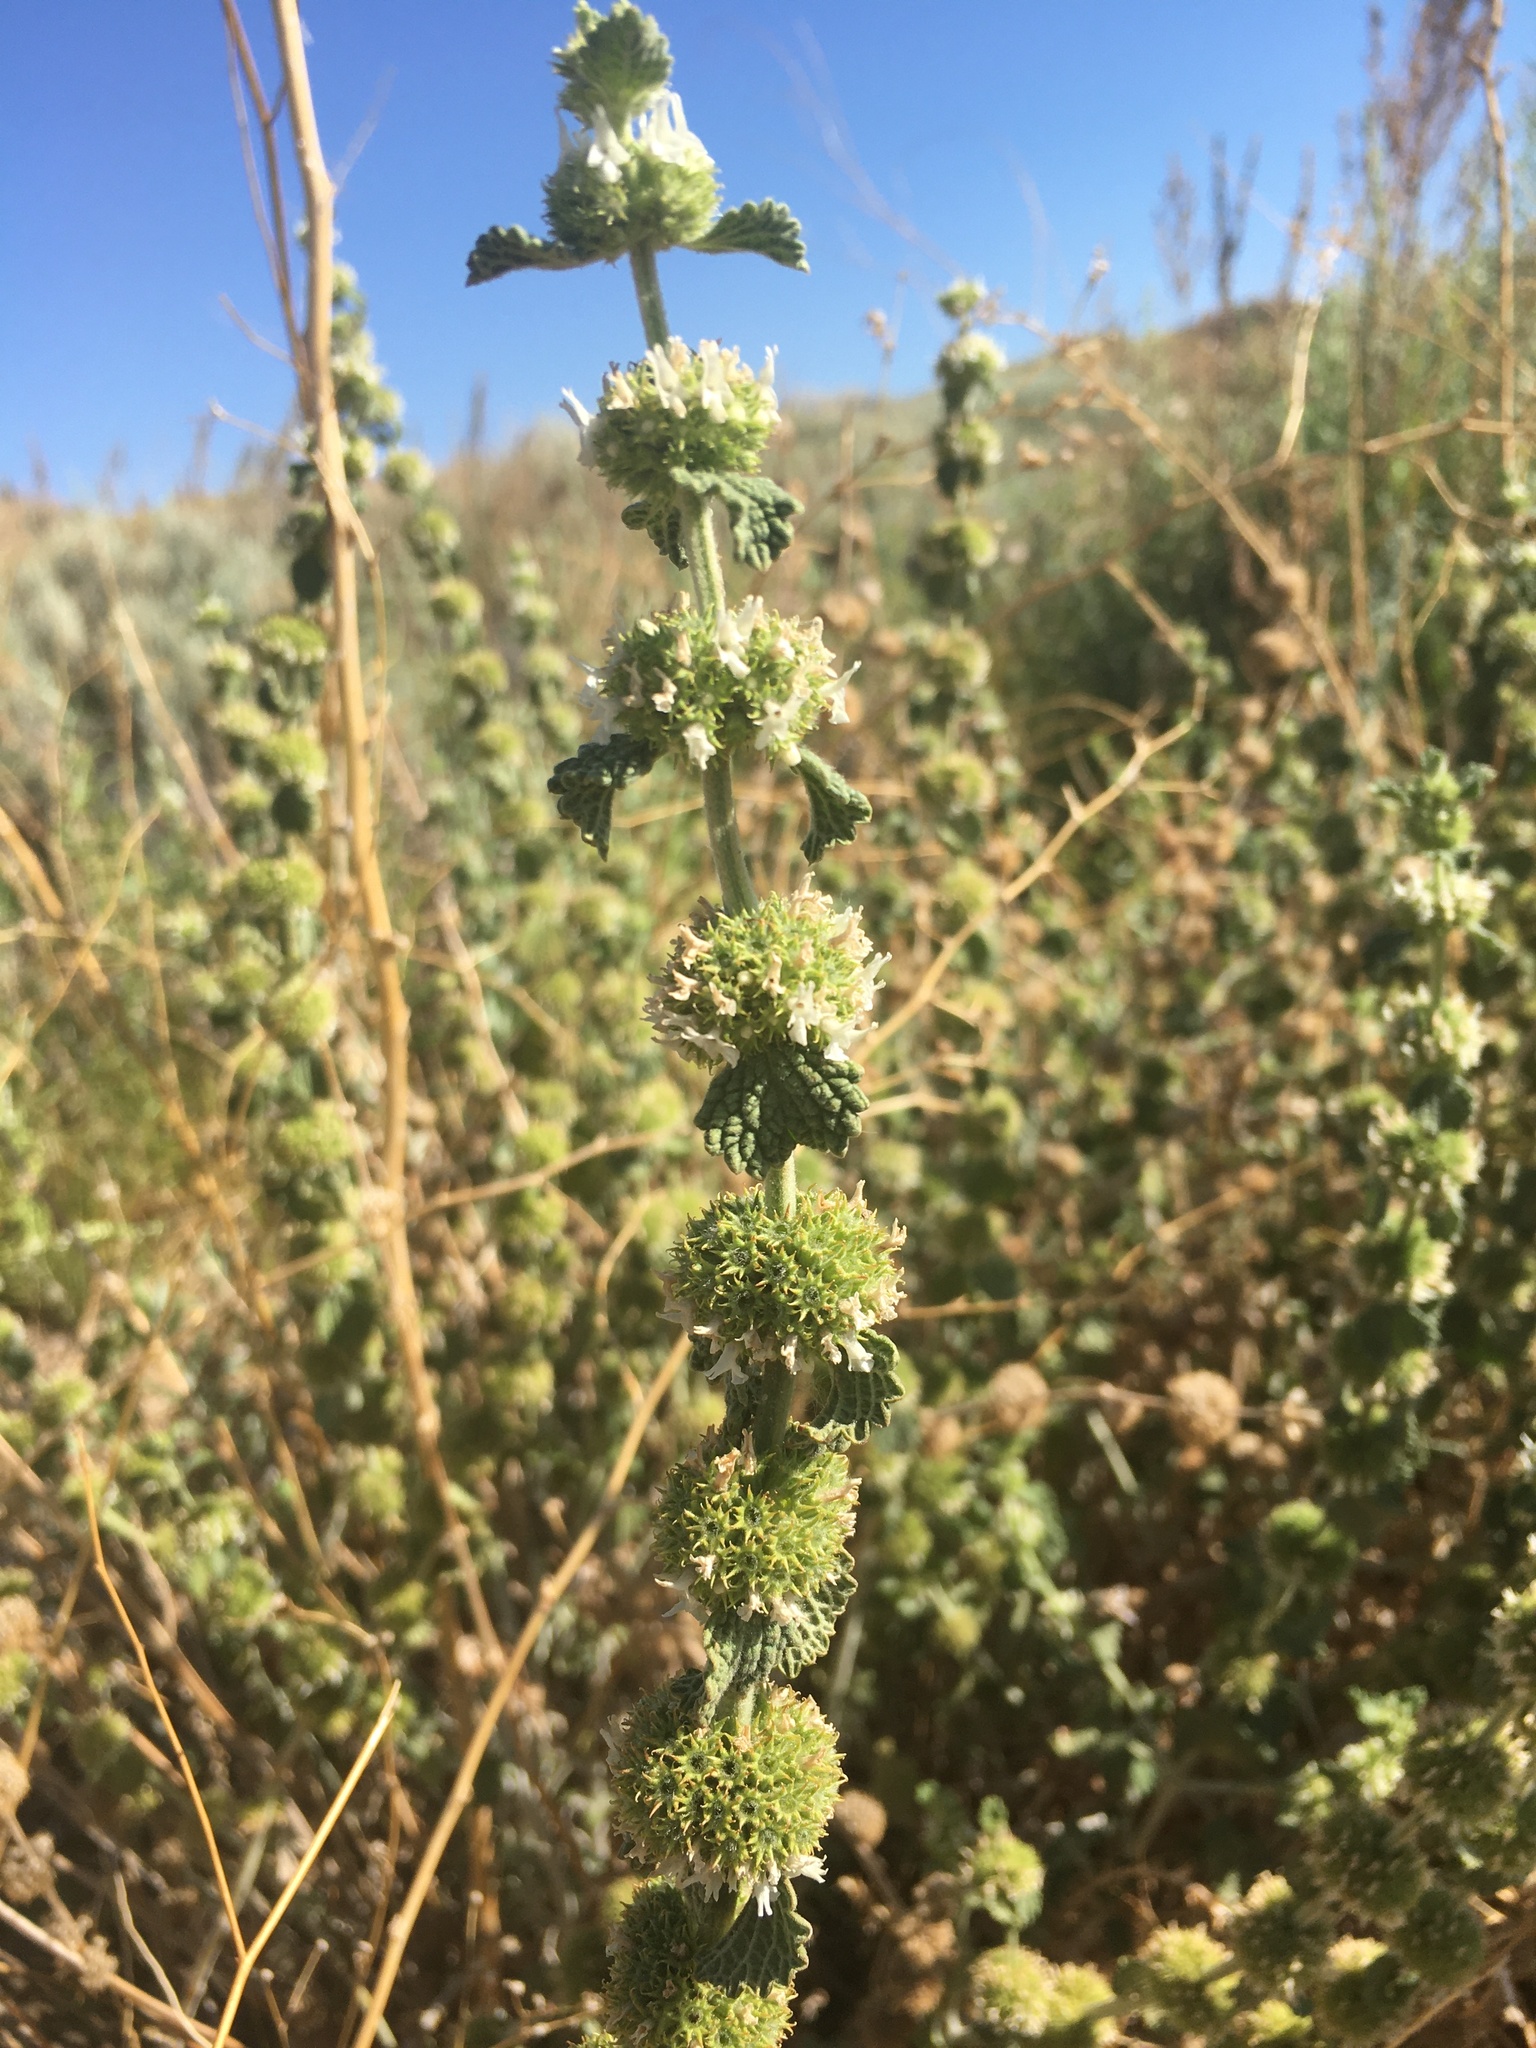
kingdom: Plantae
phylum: Tracheophyta
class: Magnoliopsida
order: Lamiales
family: Lamiaceae
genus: Marrubium
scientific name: Marrubium vulgare
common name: Horehound
